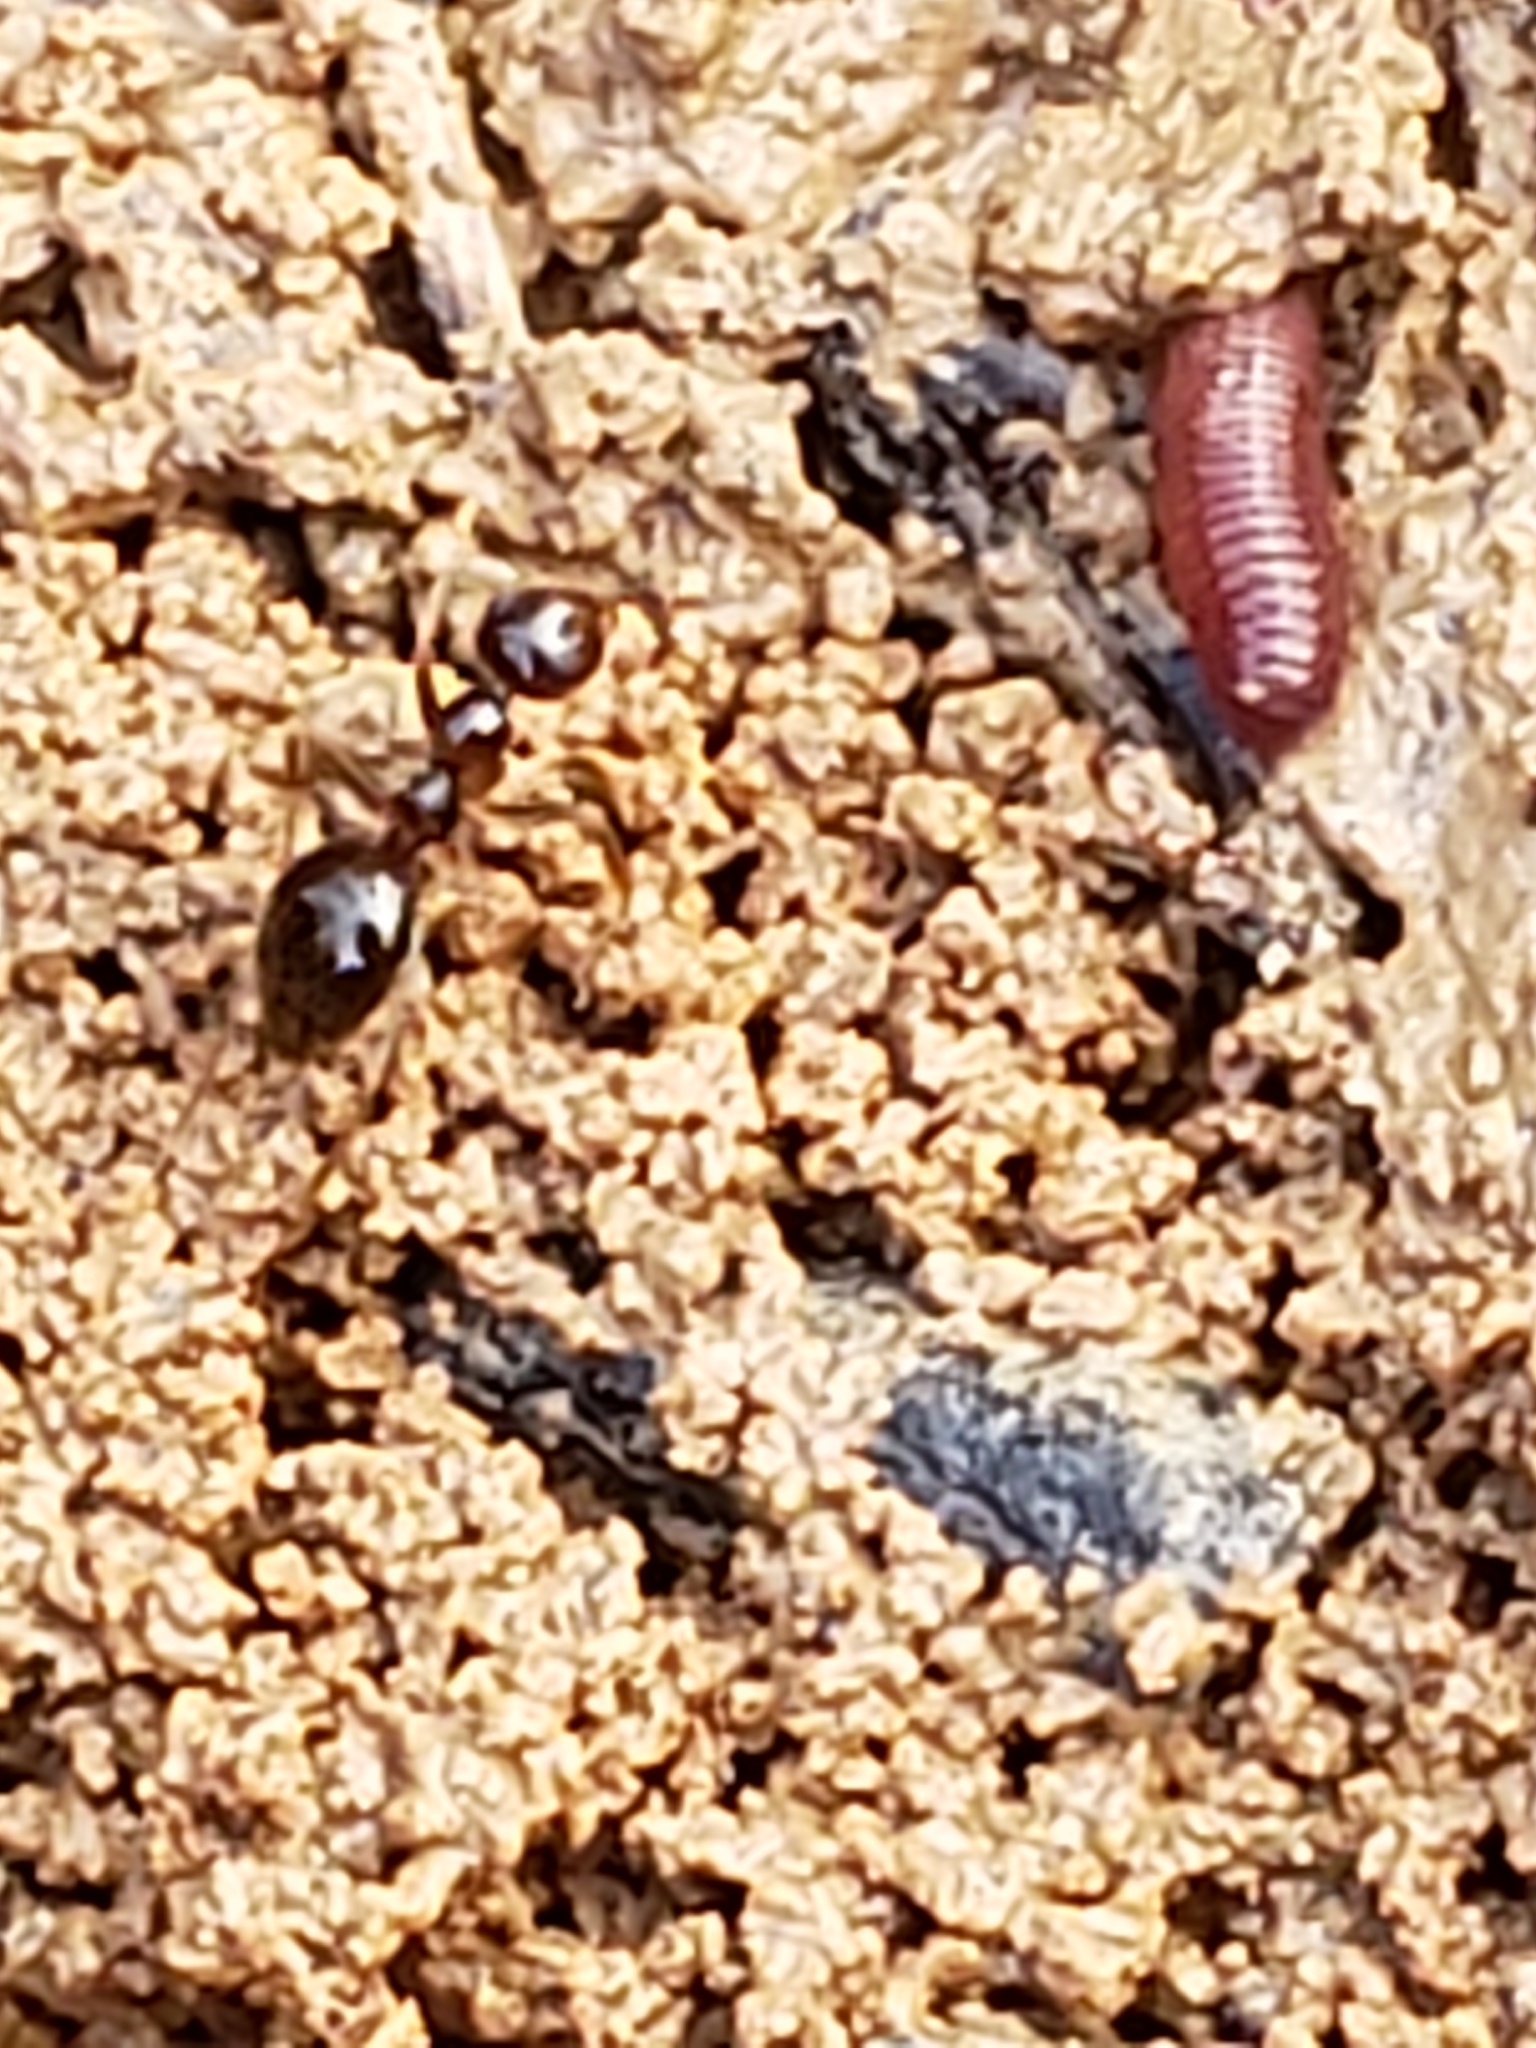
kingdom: Animalia
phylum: Arthropoda
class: Insecta
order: Hymenoptera
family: Formicidae
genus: Prenolepis
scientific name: Prenolepis imparis
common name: Small honey ant
